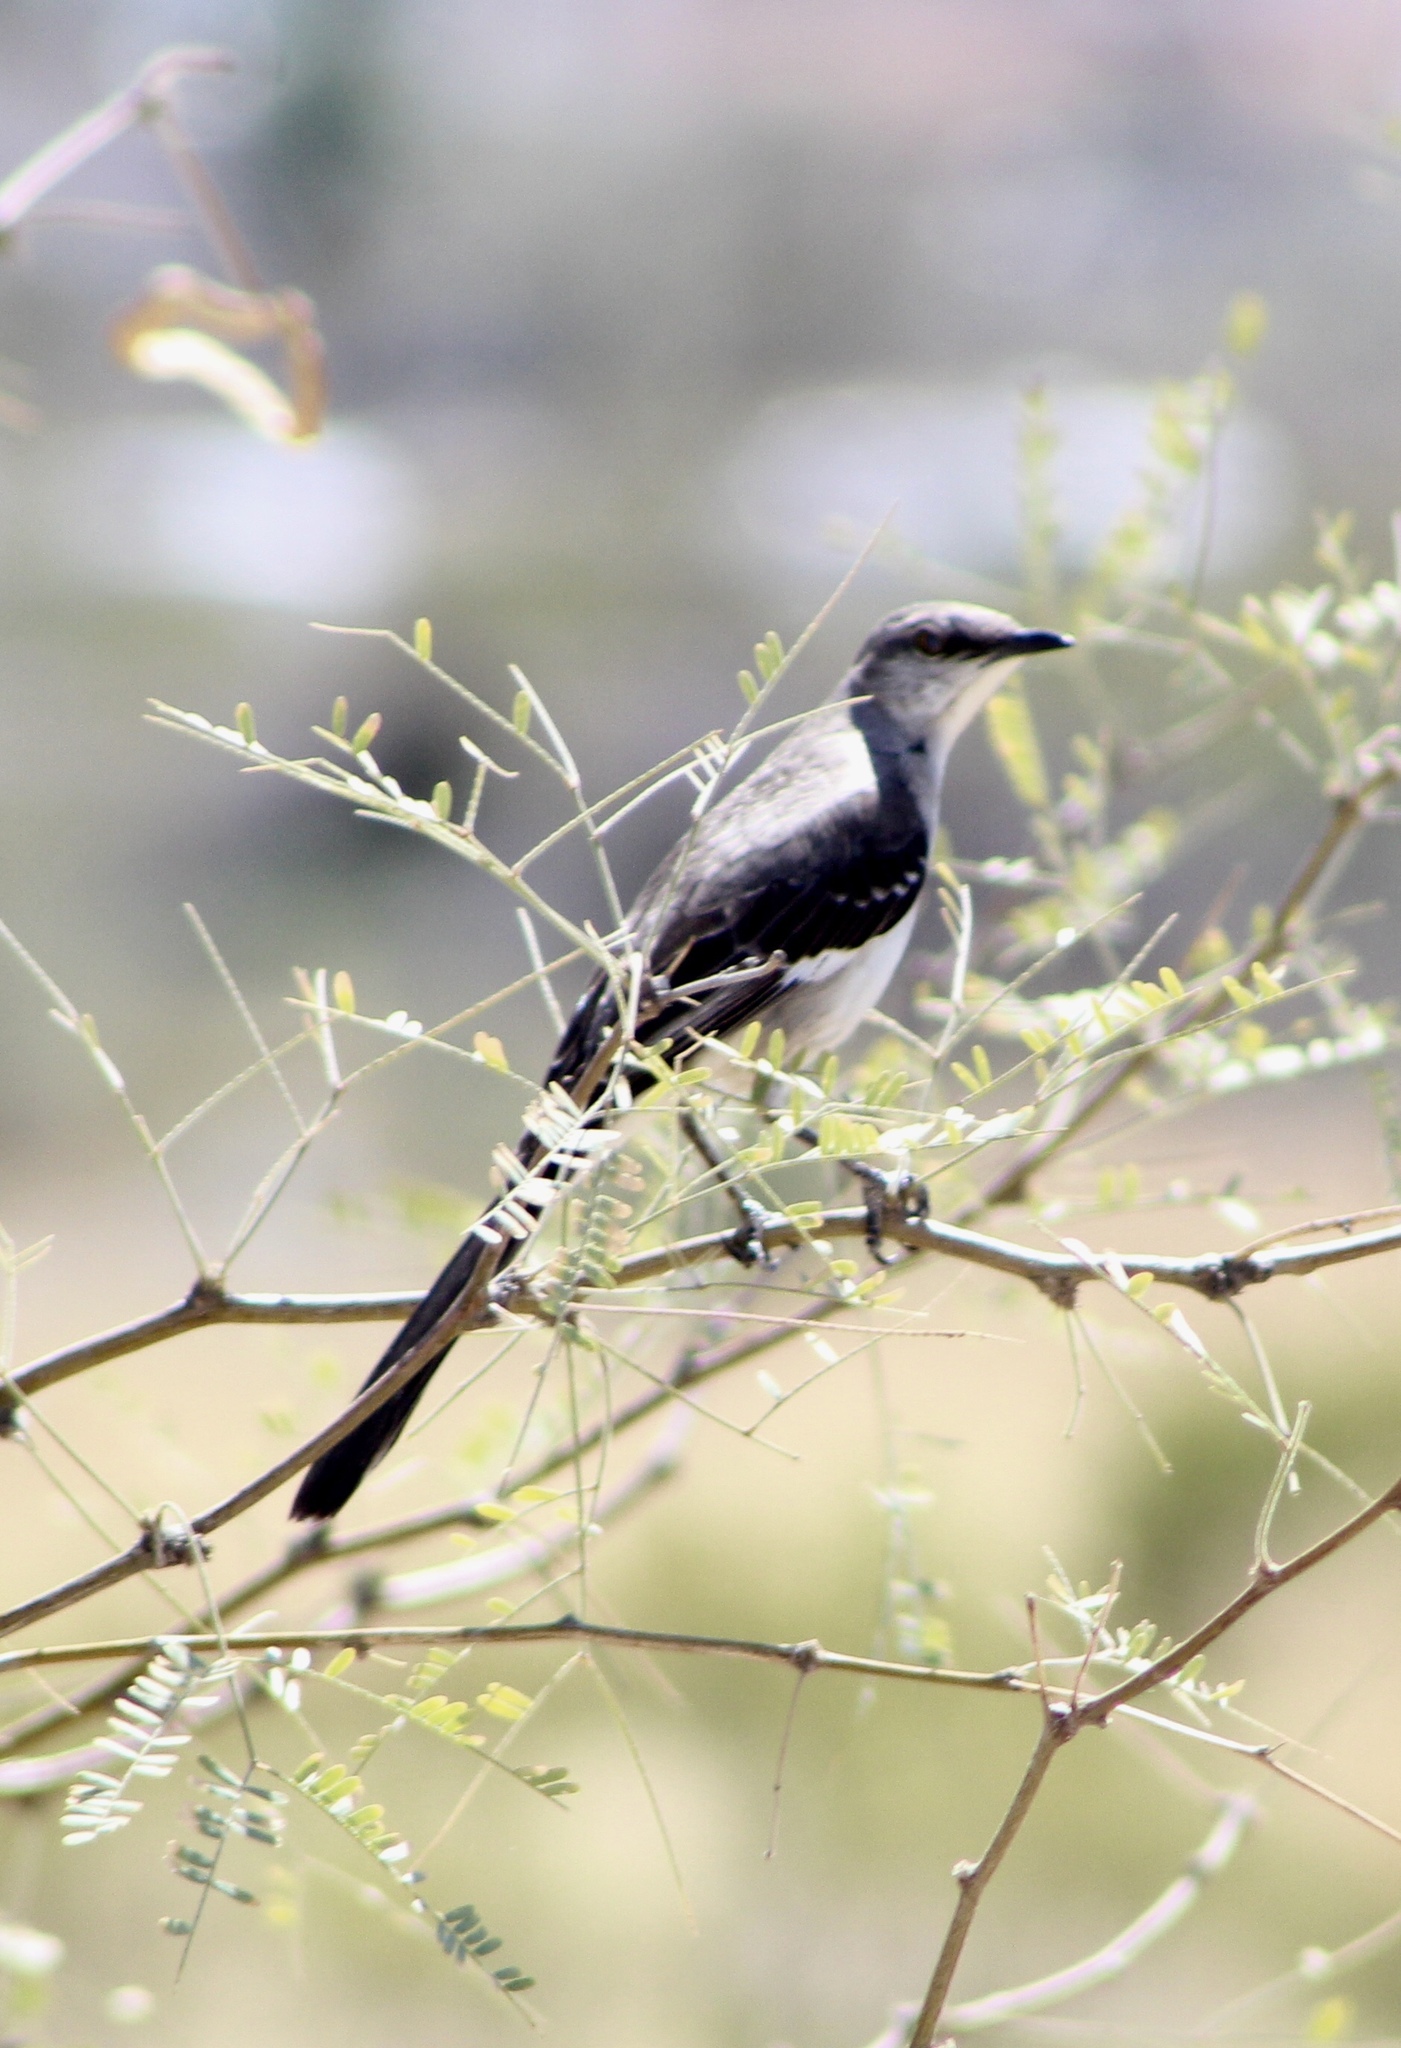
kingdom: Animalia
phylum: Chordata
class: Aves
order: Passeriformes
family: Mimidae
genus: Mimus
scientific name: Mimus polyglottos
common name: Northern mockingbird
